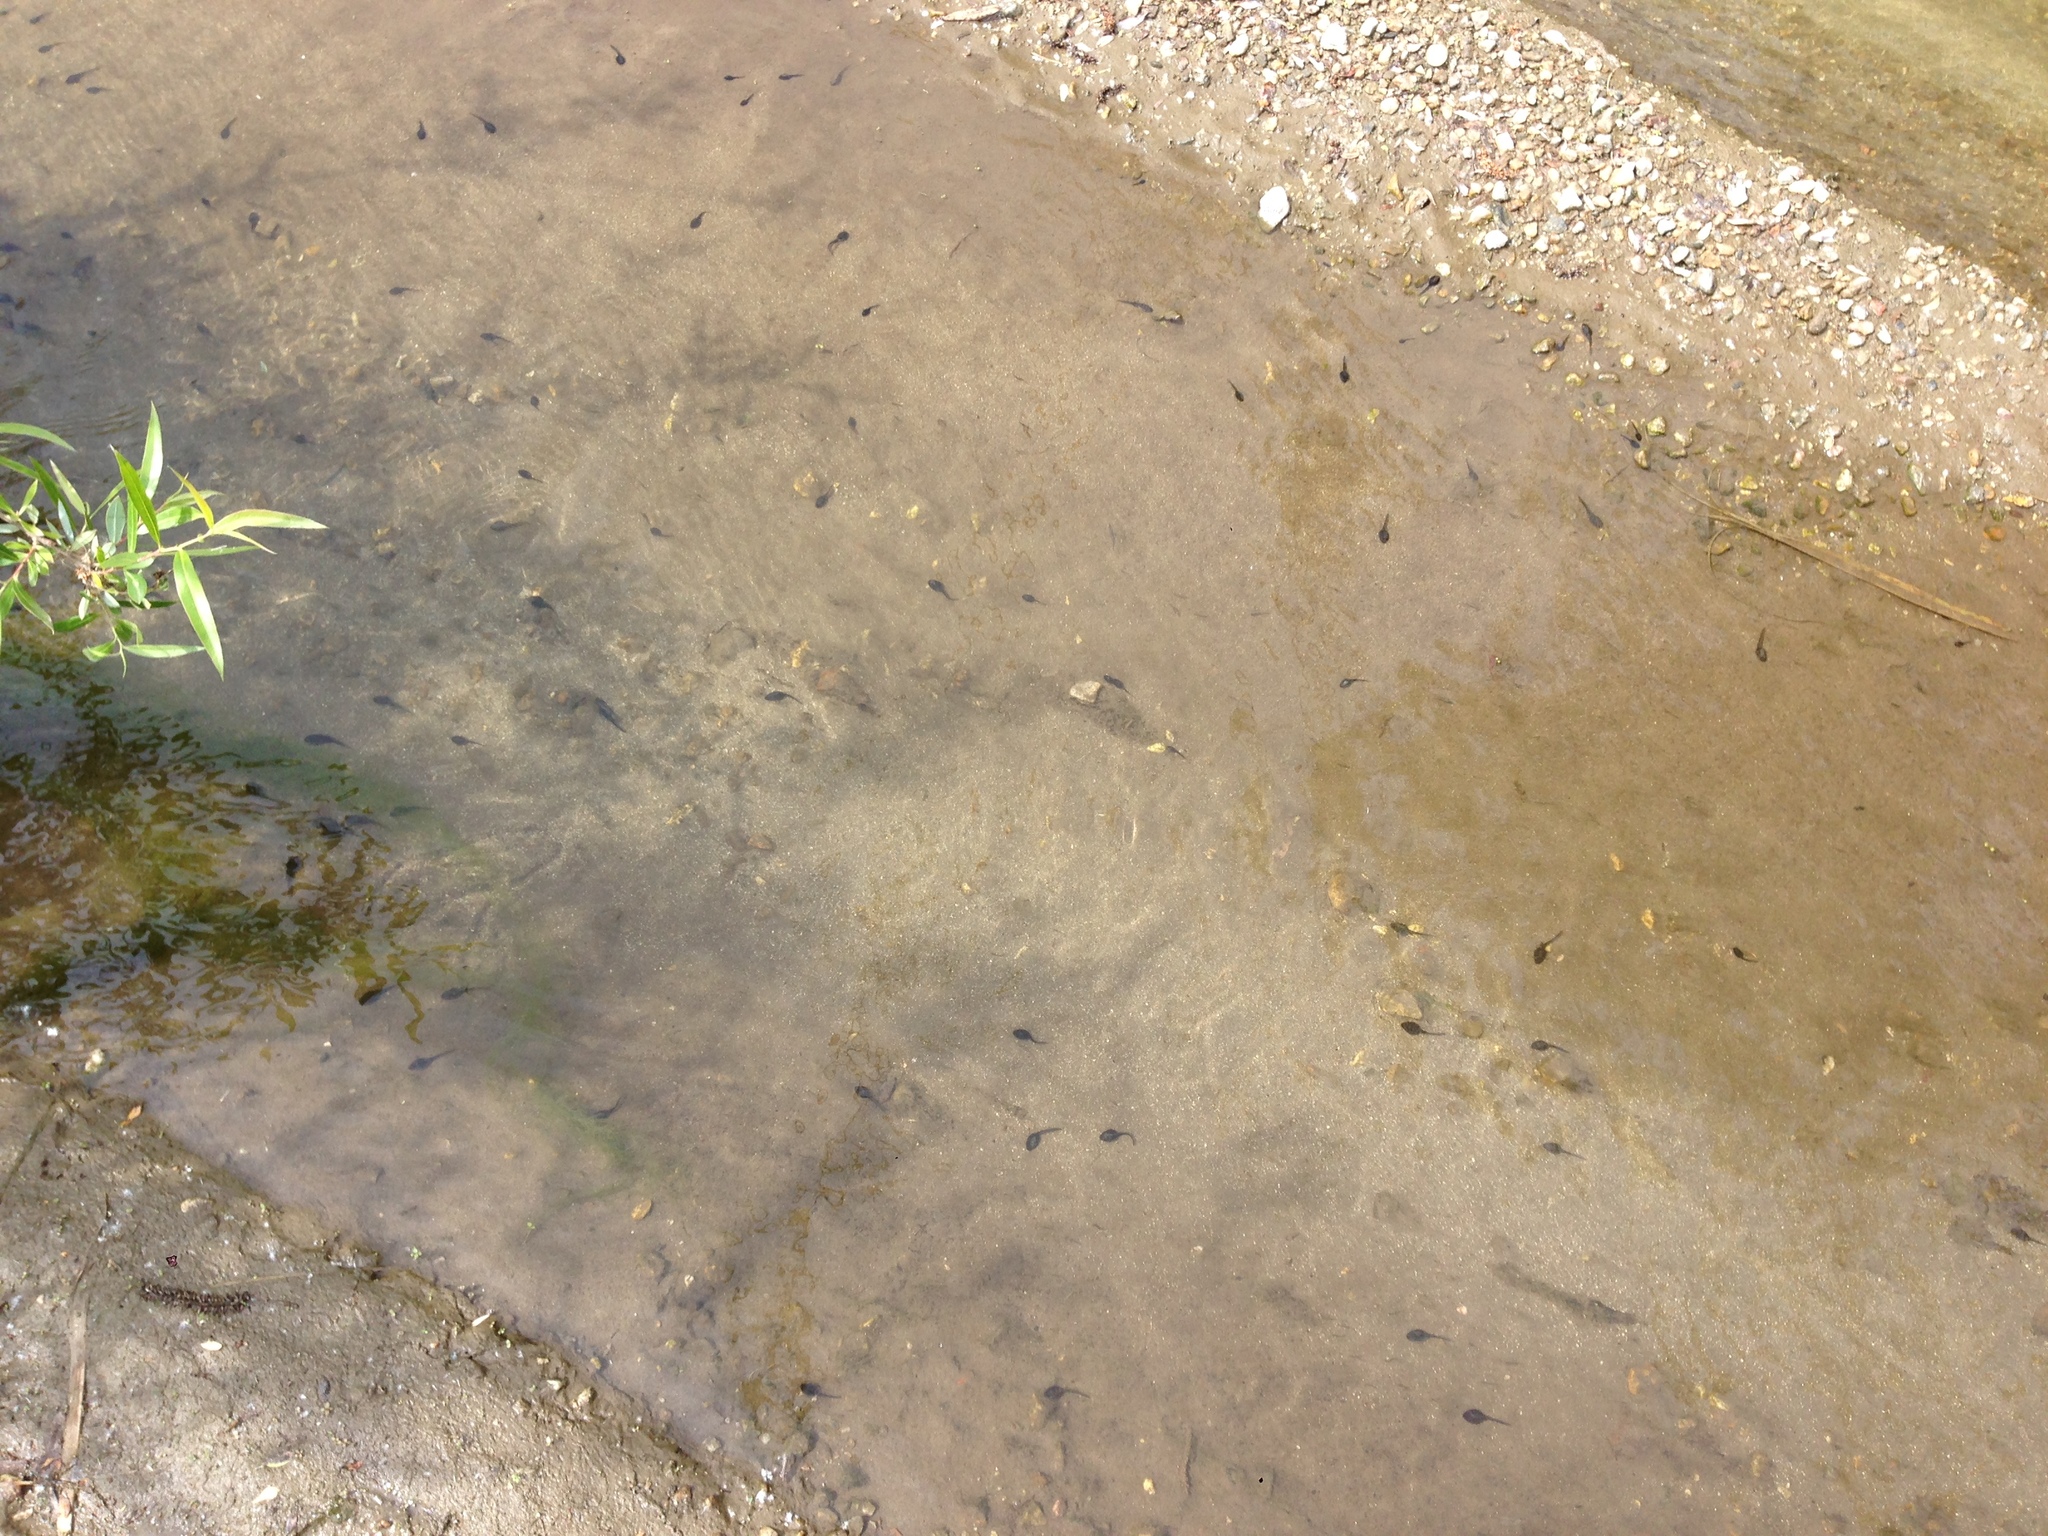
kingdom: Animalia
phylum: Chordata
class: Amphibia
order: Anura
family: Bufonidae
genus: Anaxyrus
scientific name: Anaxyrus boreas
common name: Western toad
